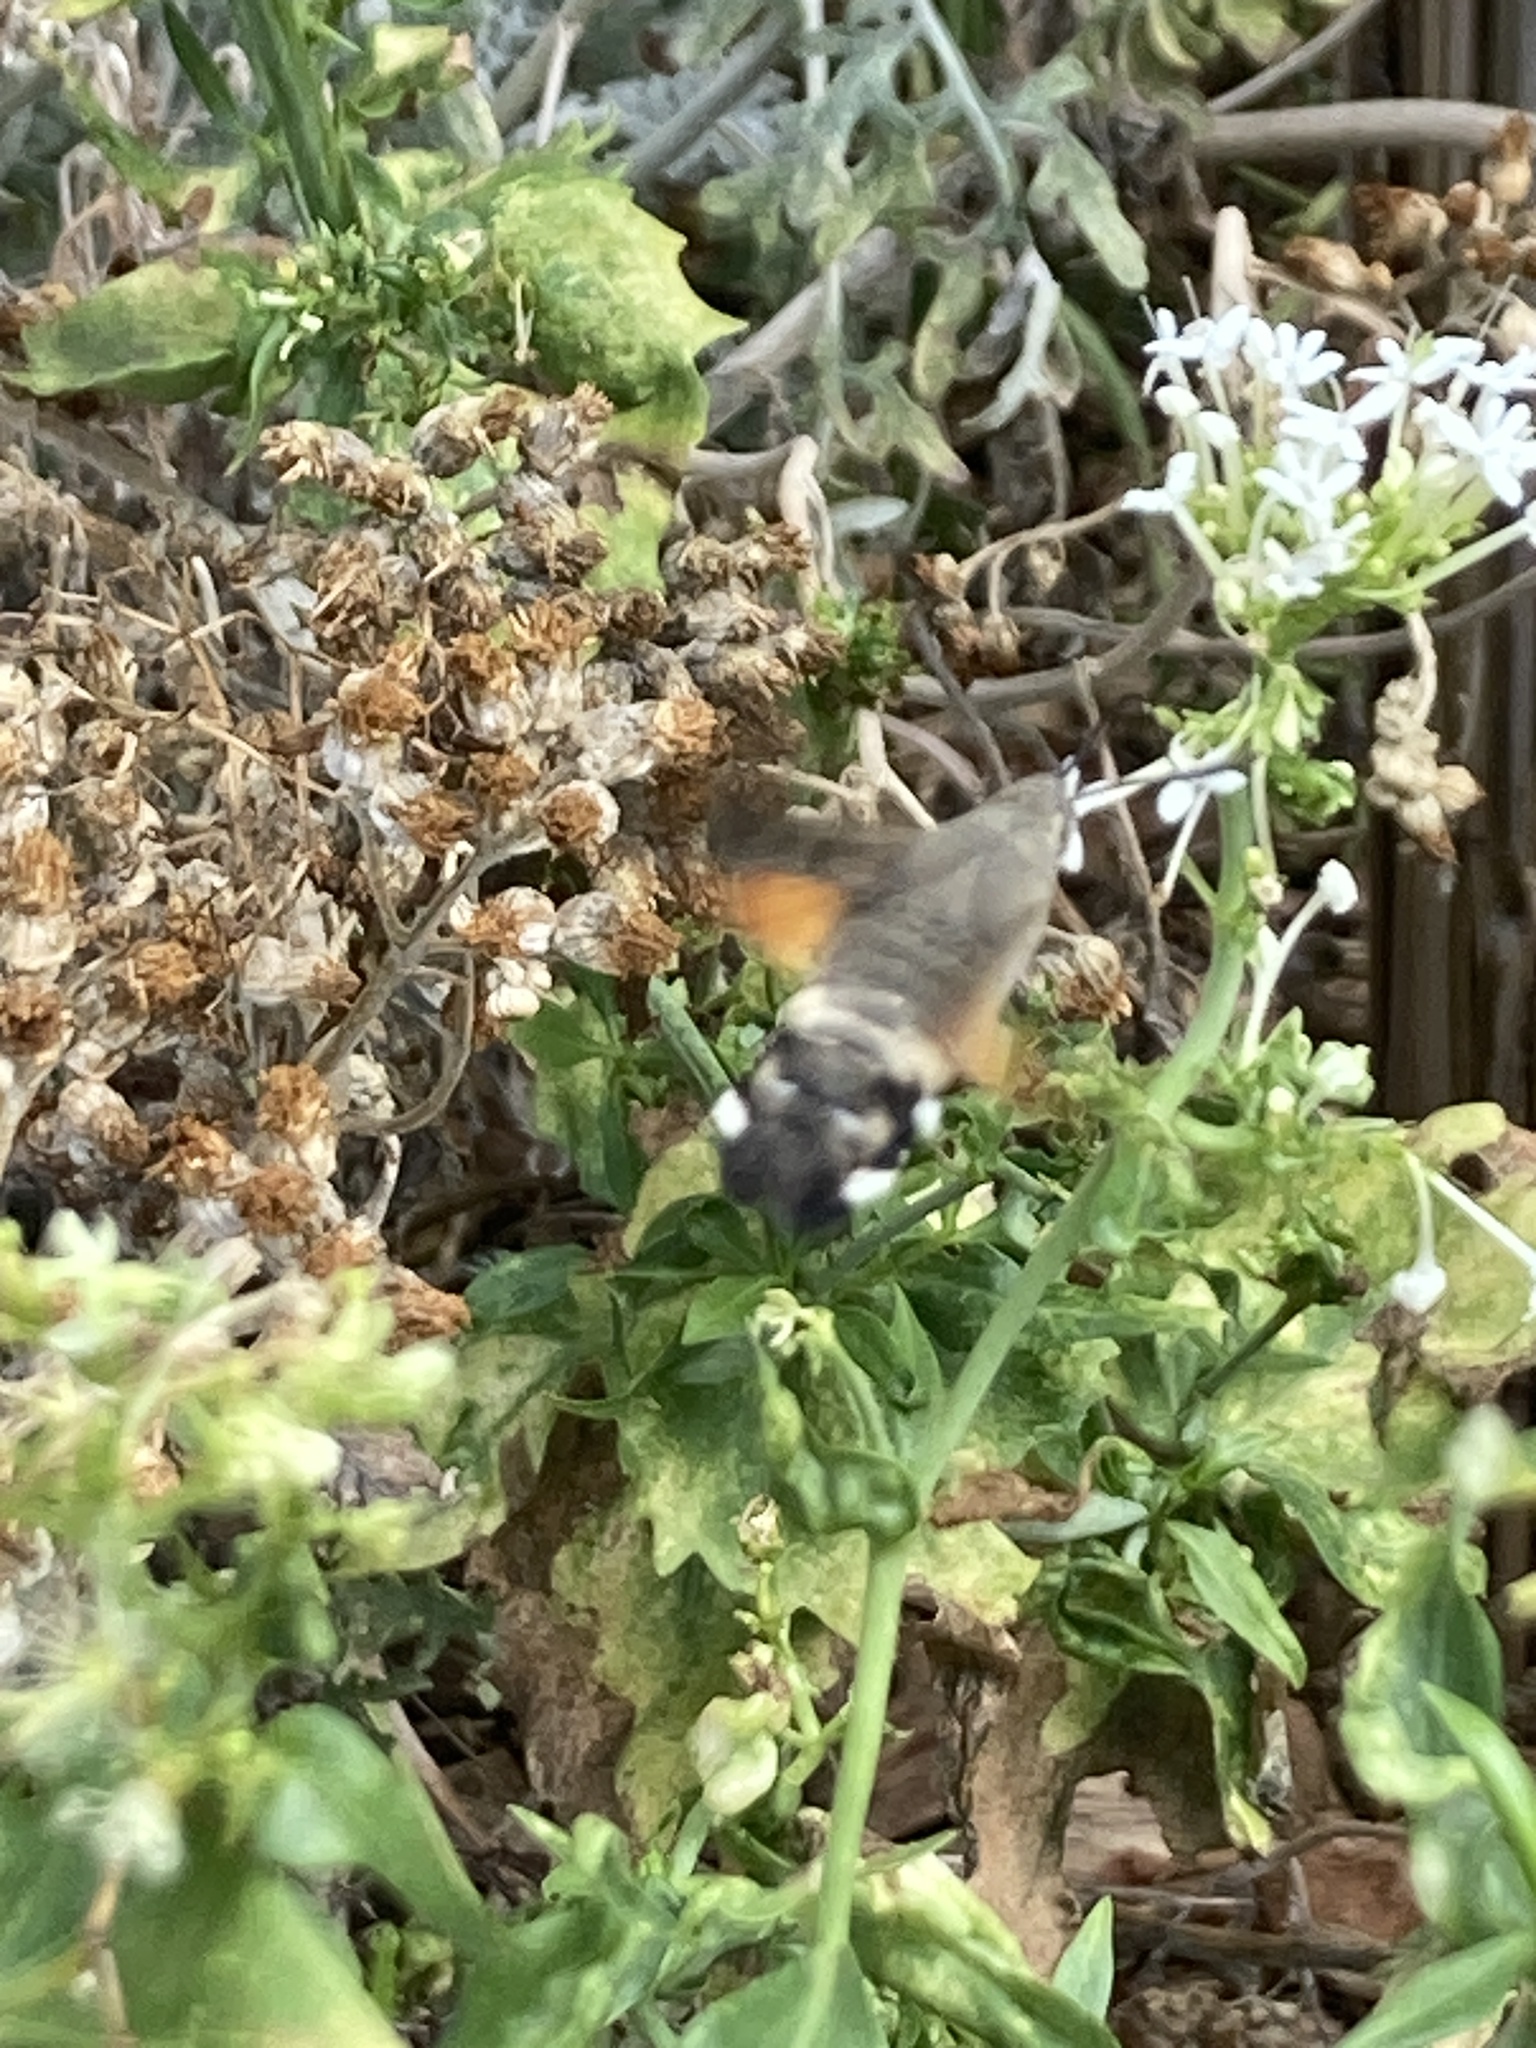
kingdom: Animalia
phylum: Arthropoda
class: Insecta
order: Lepidoptera
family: Sphingidae
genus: Macroglossum
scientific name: Macroglossum stellatarum
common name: Humming-bird hawk-moth
